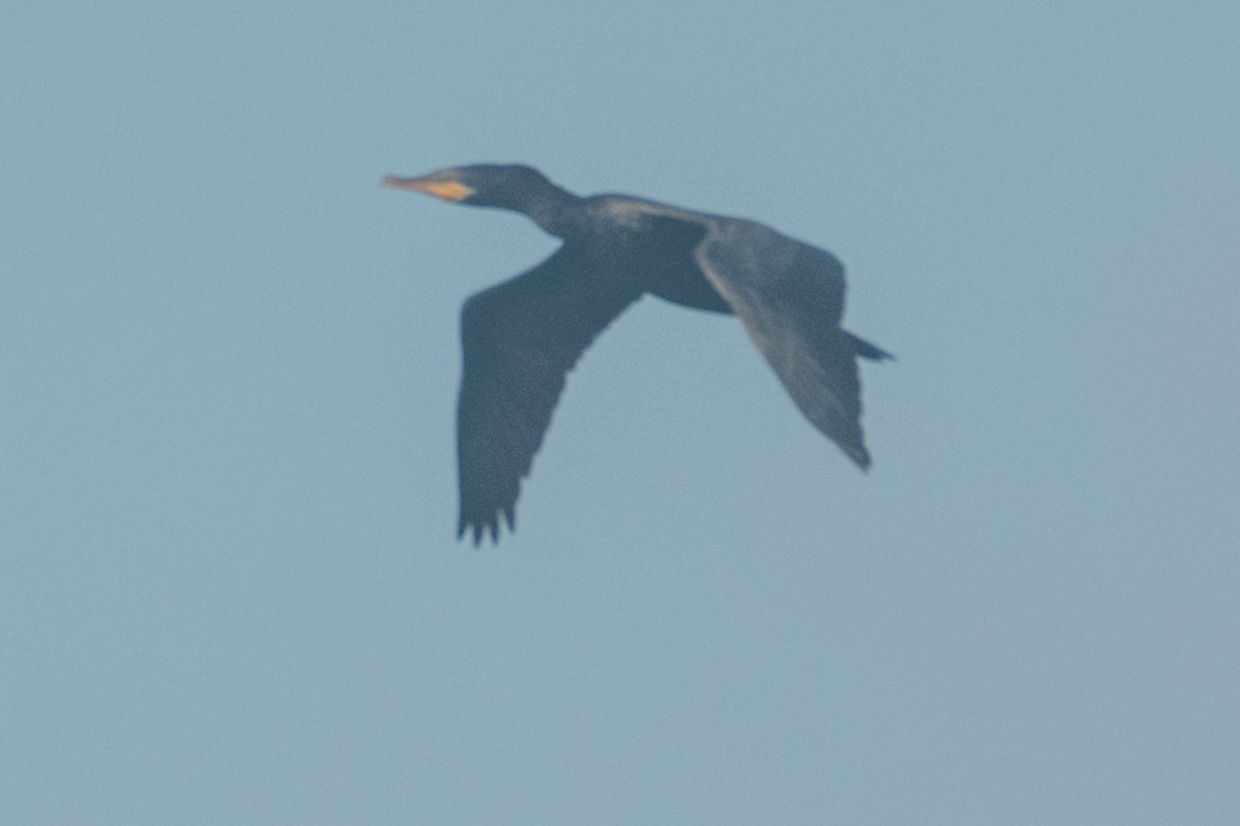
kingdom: Animalia
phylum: Chordata
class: Aves
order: Suliformes
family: Phalacrocoracidae
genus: Phalacrocorax
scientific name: Phalacrocorax brasilianus
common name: Neotropic cormorant
